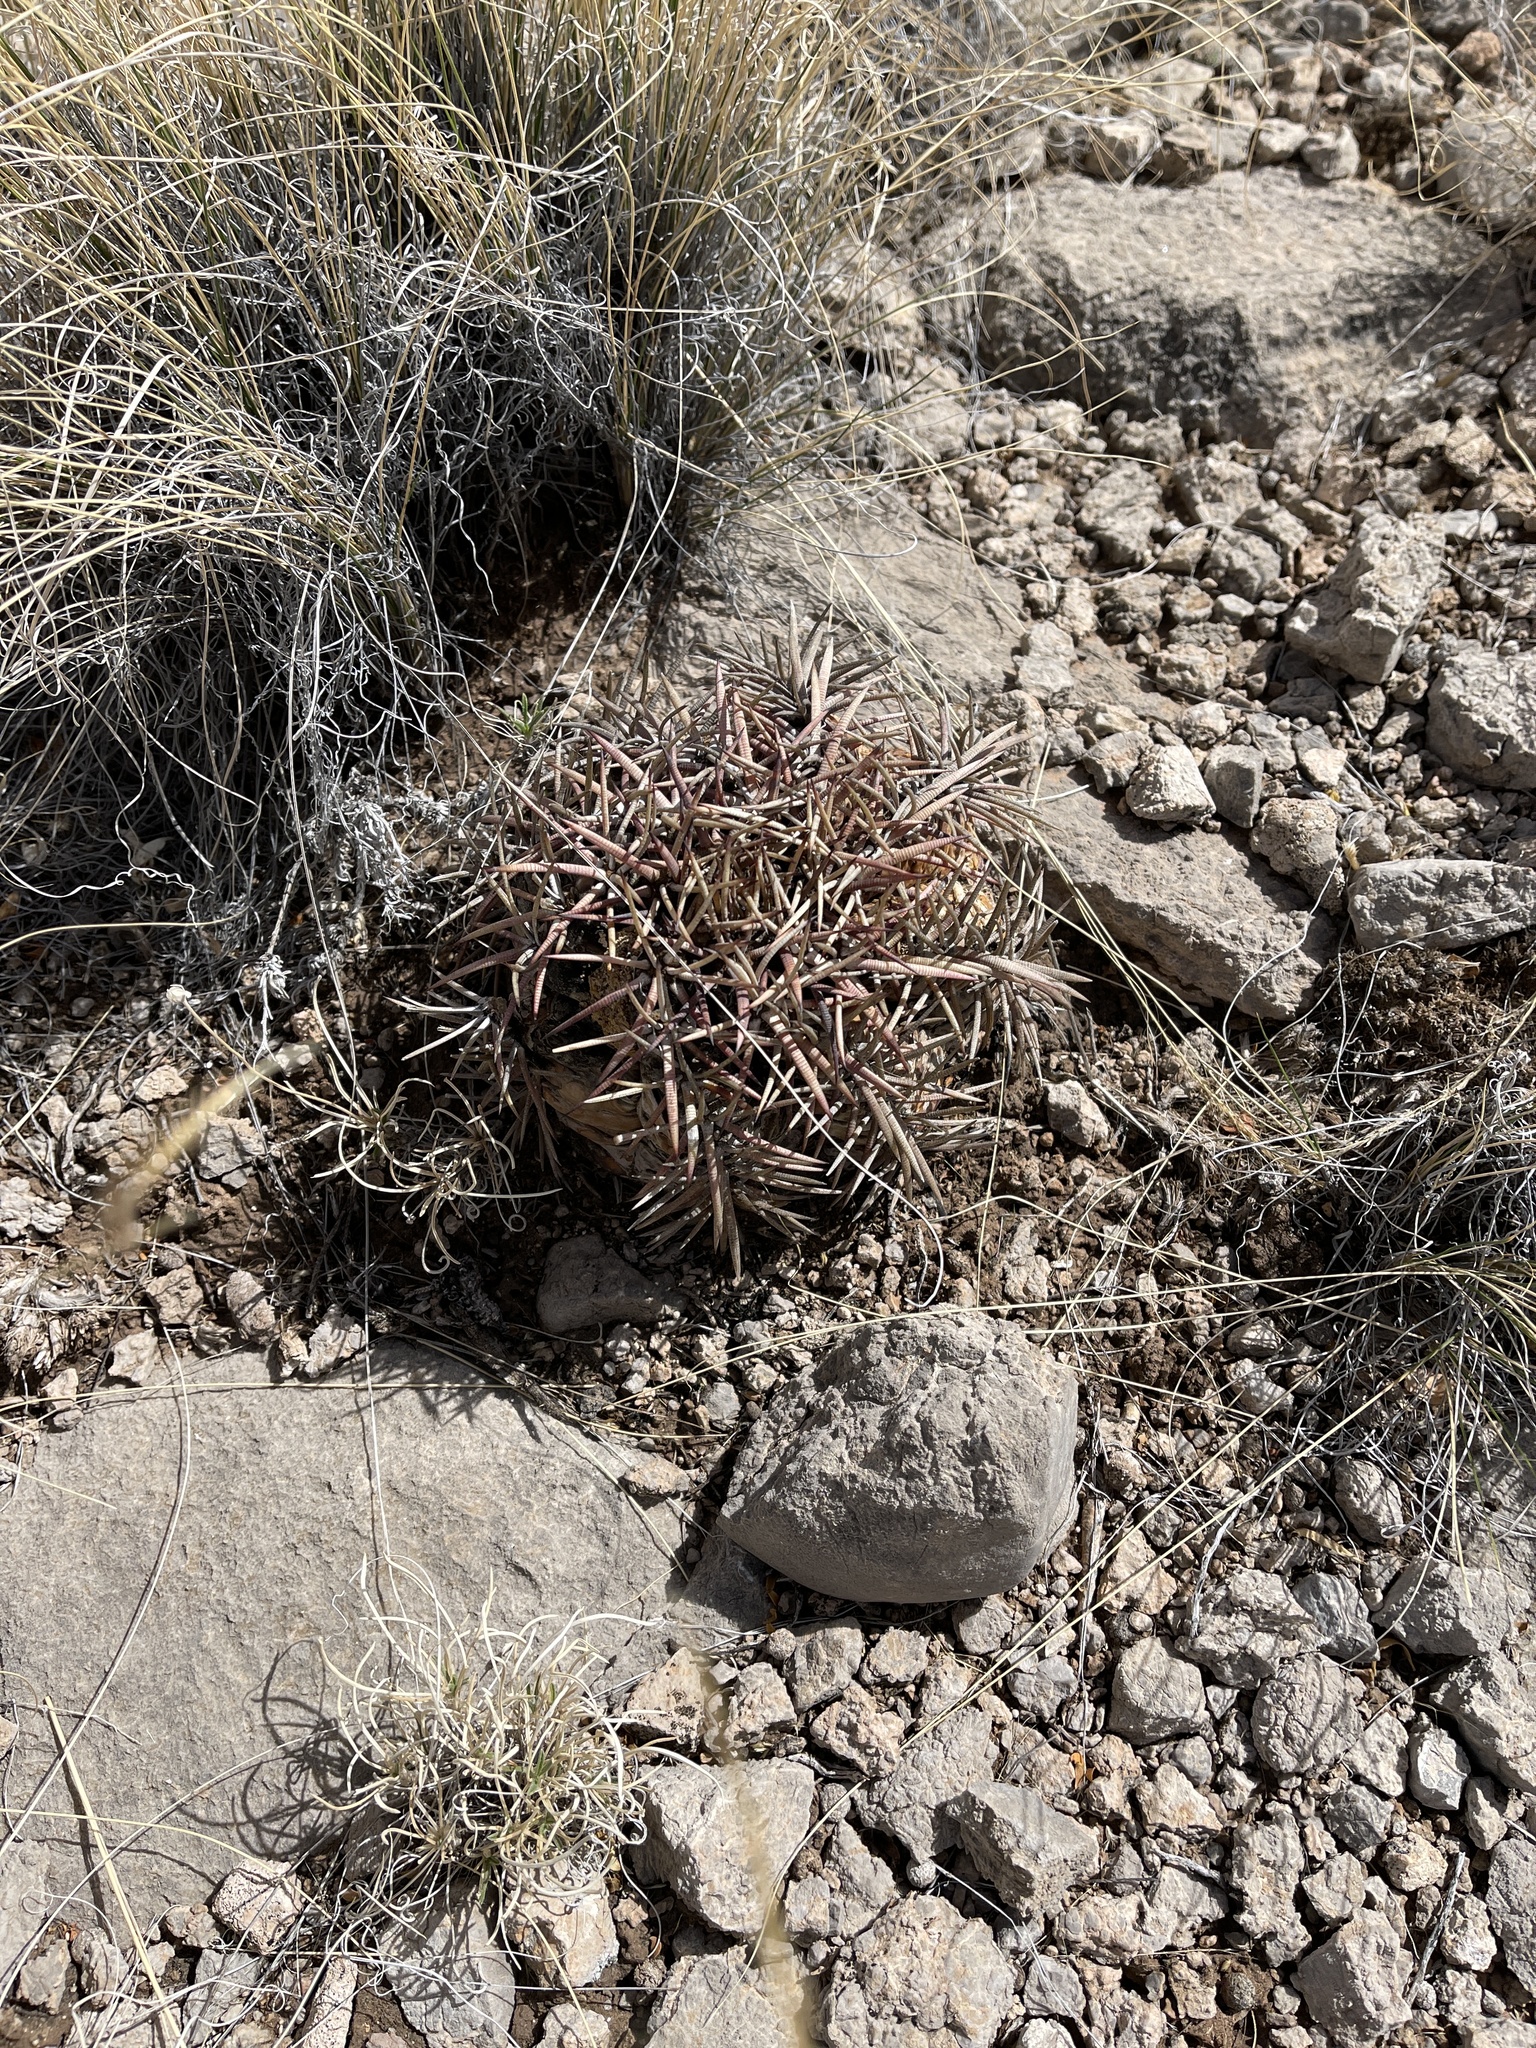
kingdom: Plantae
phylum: Tracheophyta
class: Magnoliopsida
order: Caryophyllales
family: Cactaceae
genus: Echinocactus
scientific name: Echinocactus horizonthalonius
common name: Devilshead
